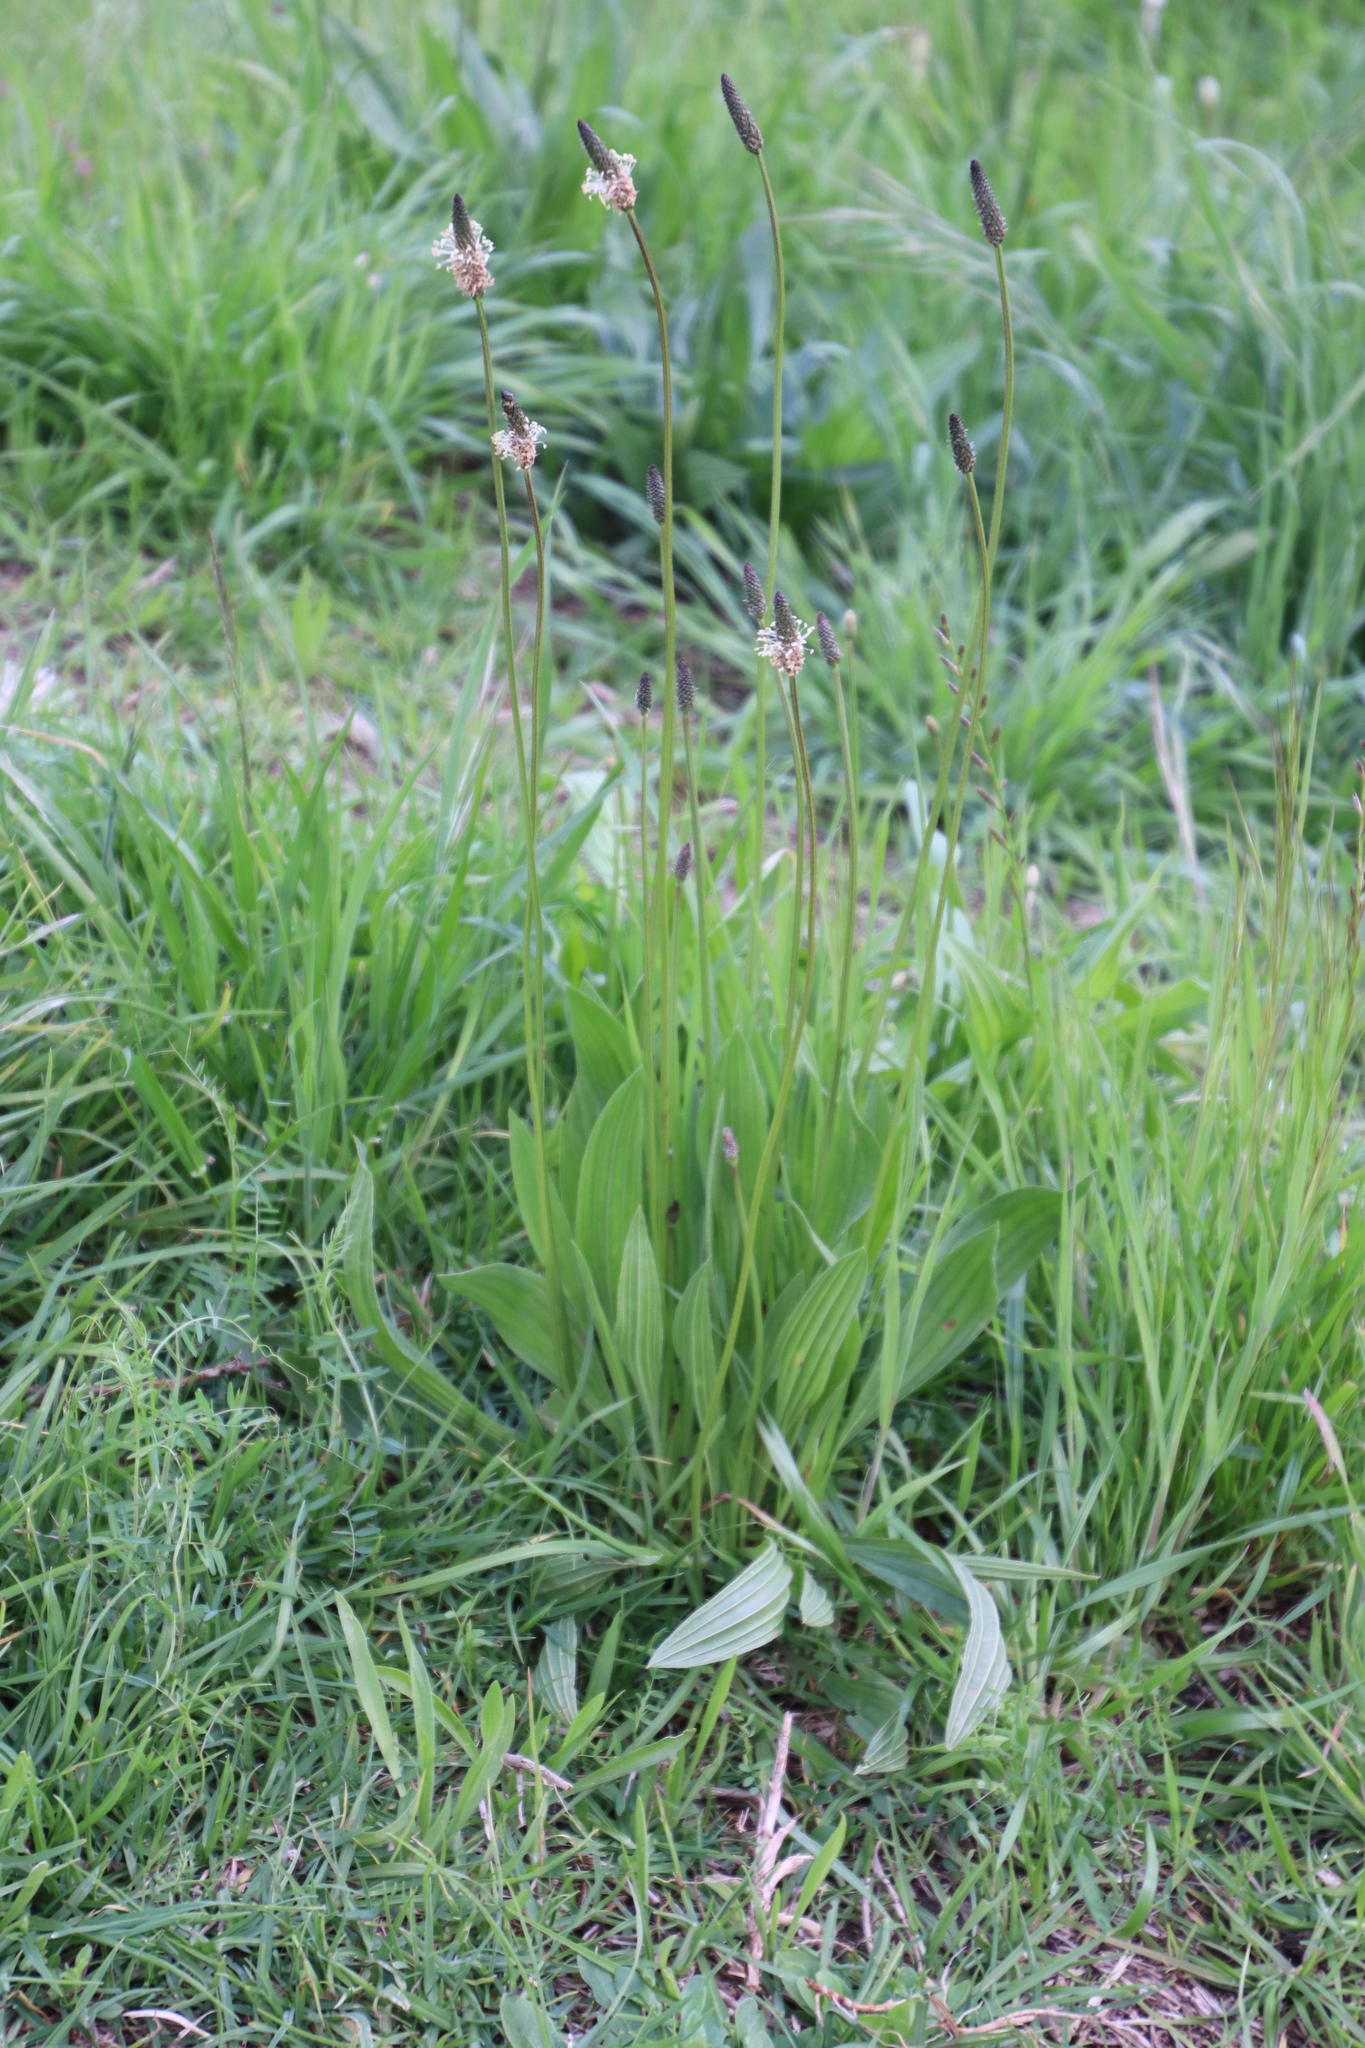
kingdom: Plantae
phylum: Tracheophyta
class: Magnoliopsida
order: Lamiales
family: Plantaginaceae
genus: Plantago
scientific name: Plantago lanceolata
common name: Ribwort plantain
